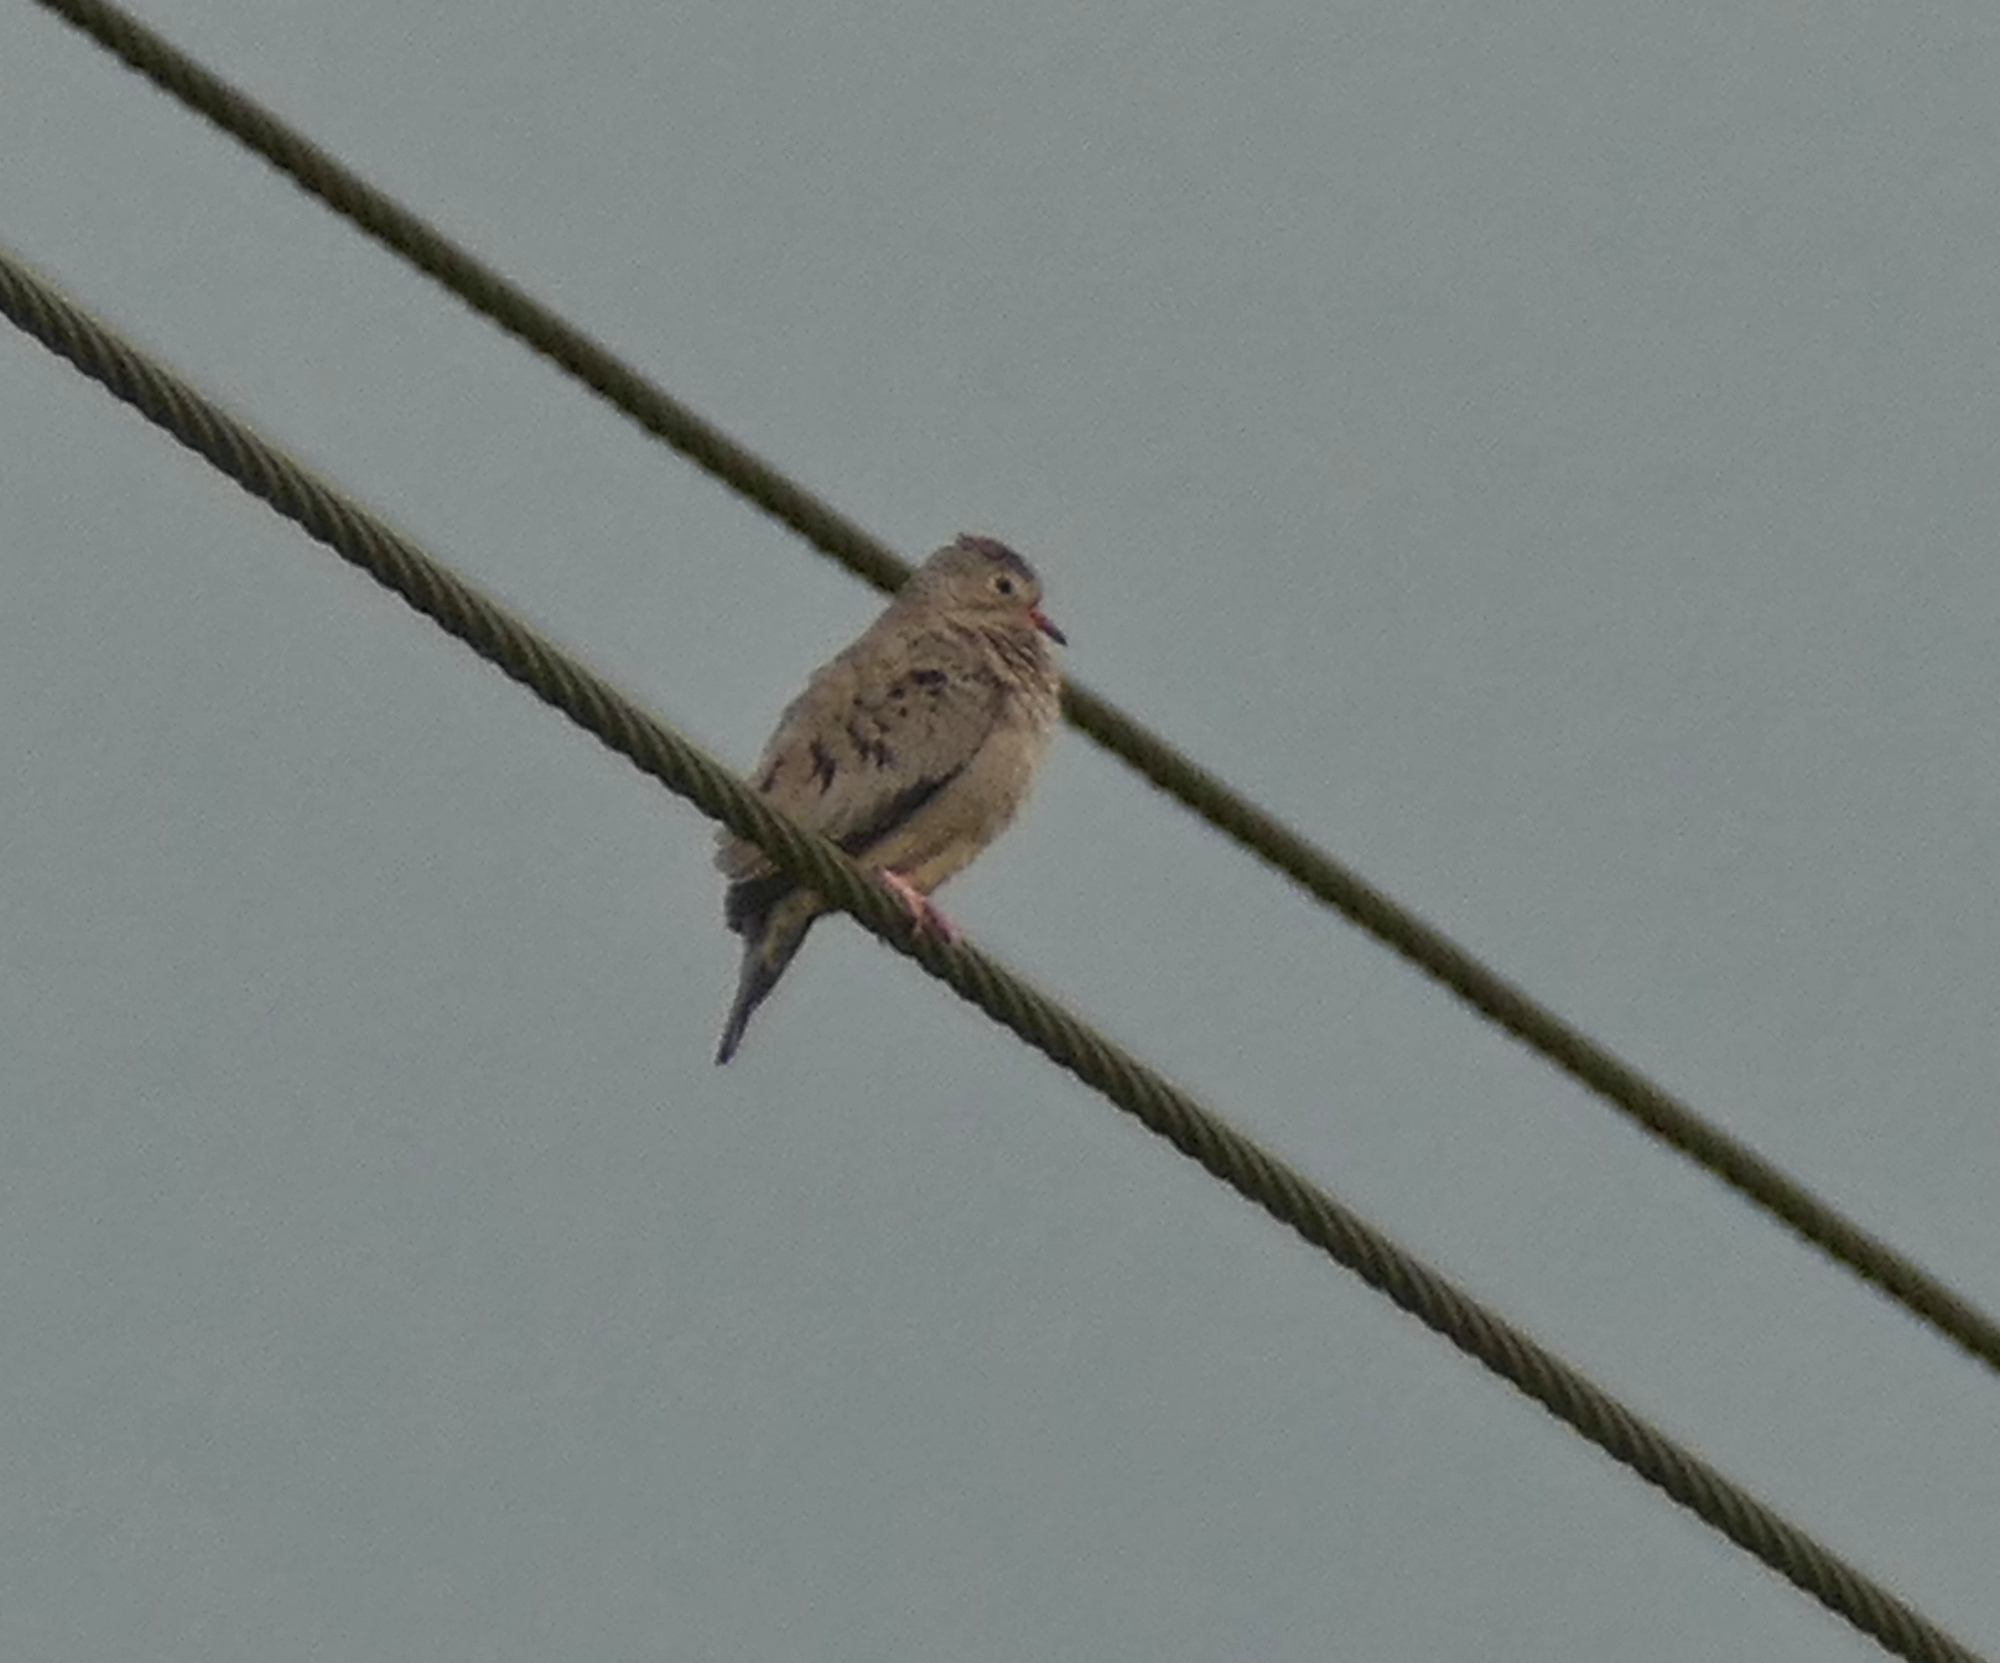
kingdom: Animalia
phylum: Chordata
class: Aves
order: Columbiformes
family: Columbidae
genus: Columbina
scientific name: Columbina passerina
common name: Common ground-dove
